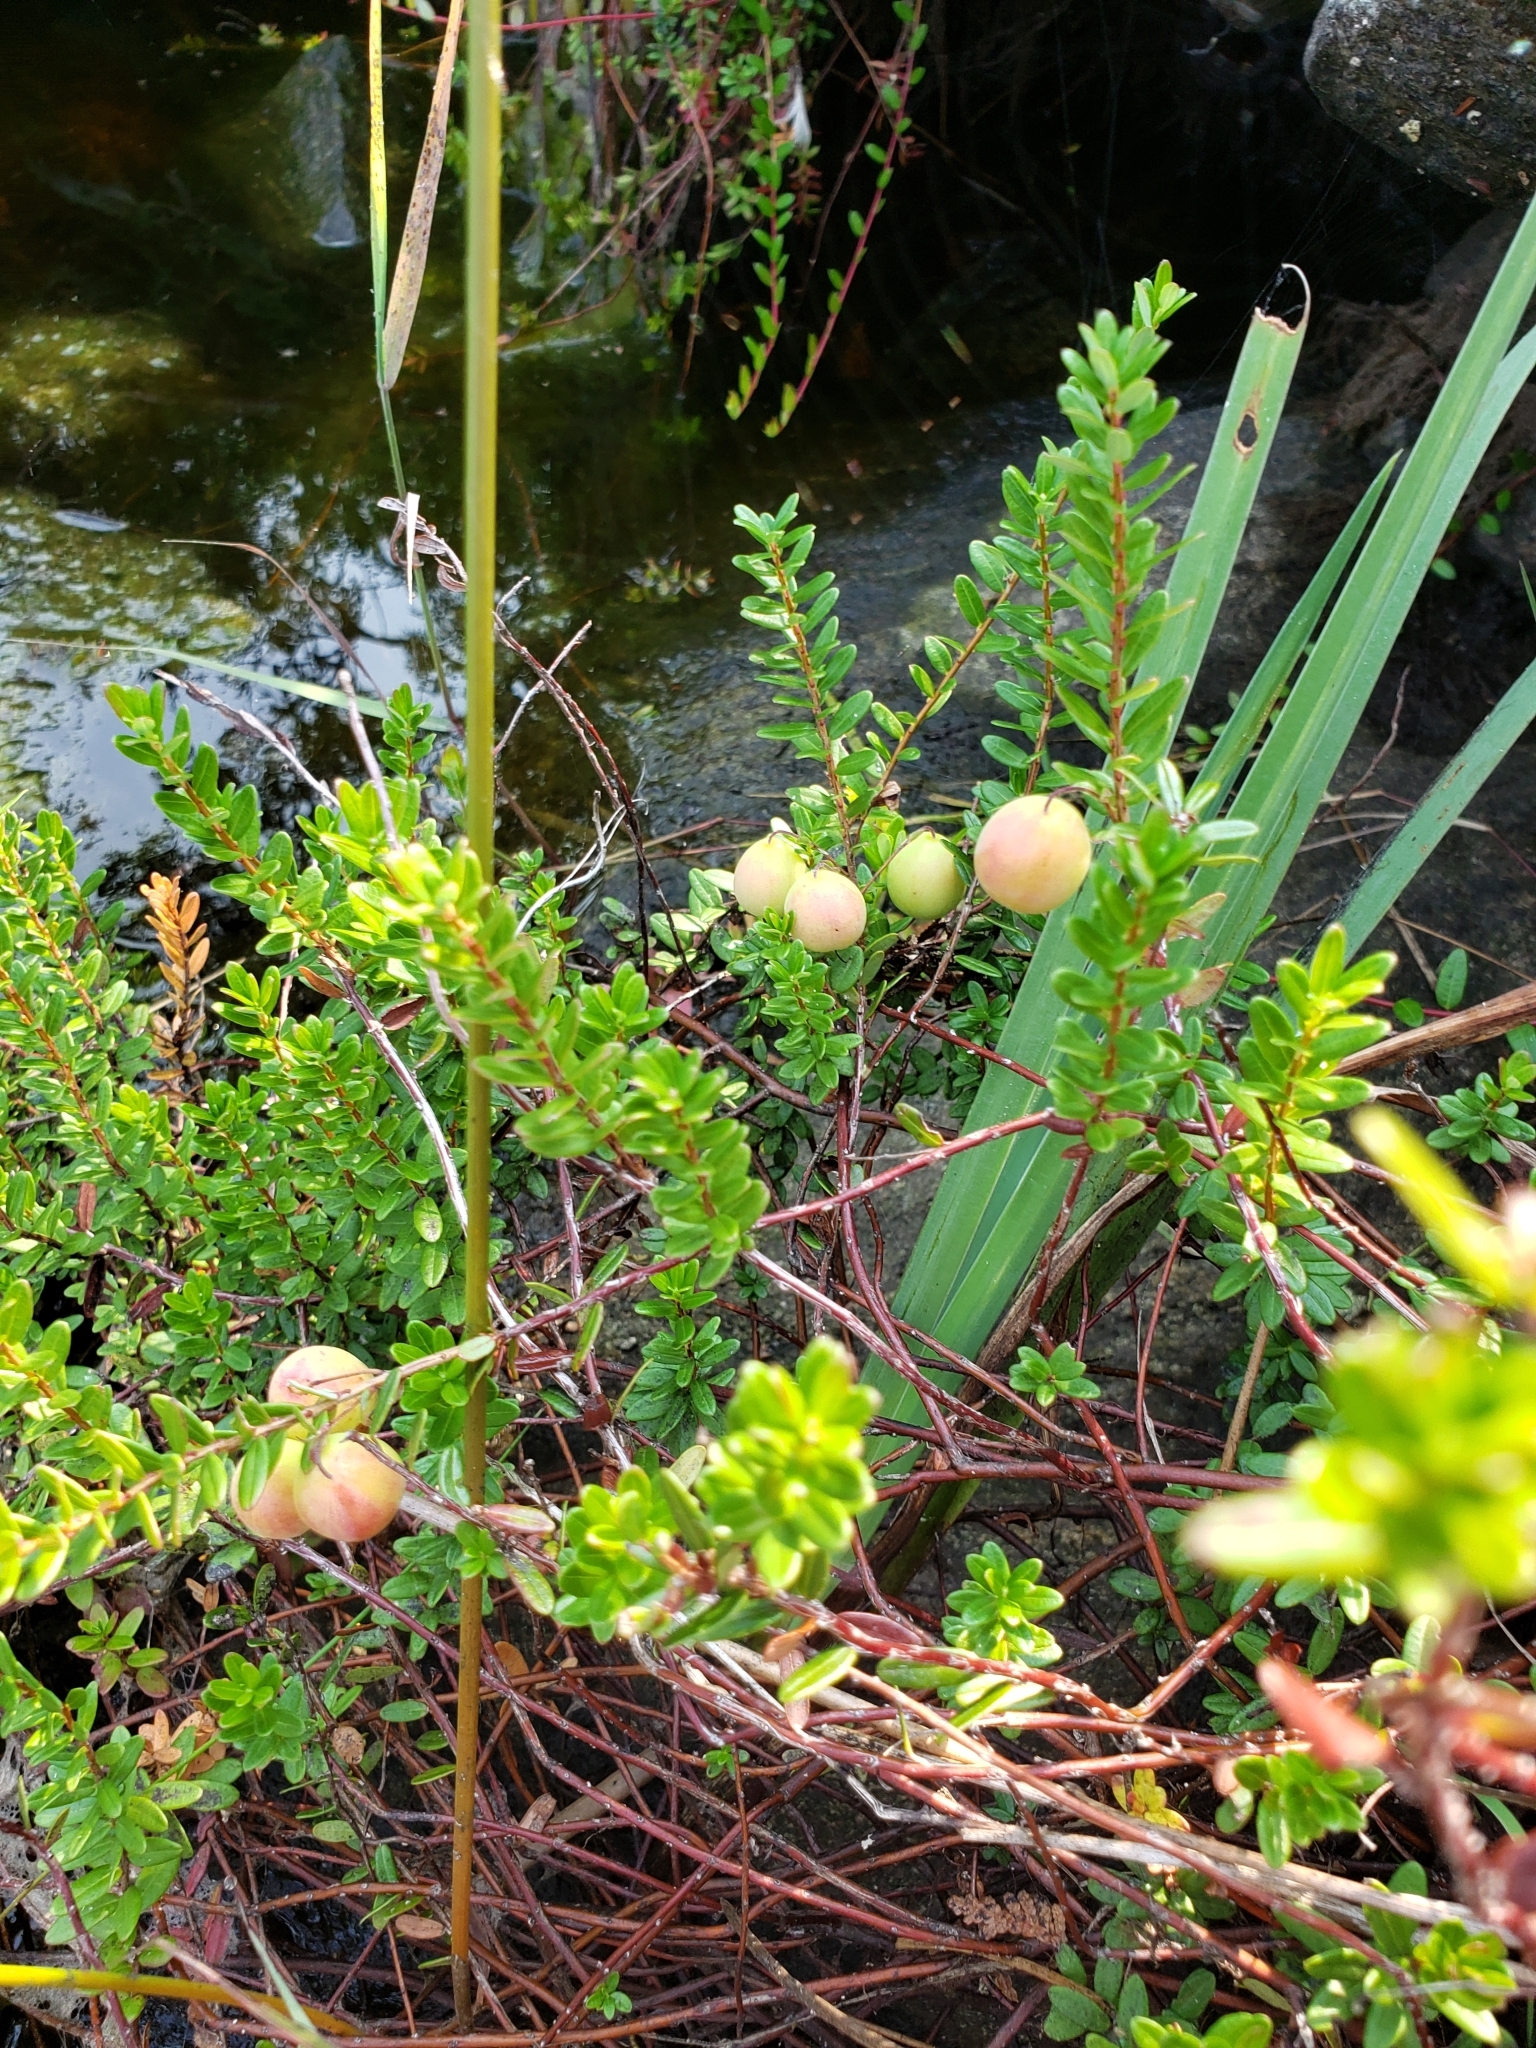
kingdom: Plantae
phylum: Tracheophyta
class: Magnoliopsida
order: Ericales
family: Ericaceae
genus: Vaccinium
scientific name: Vaccinium macrocarpon
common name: American cranberry
